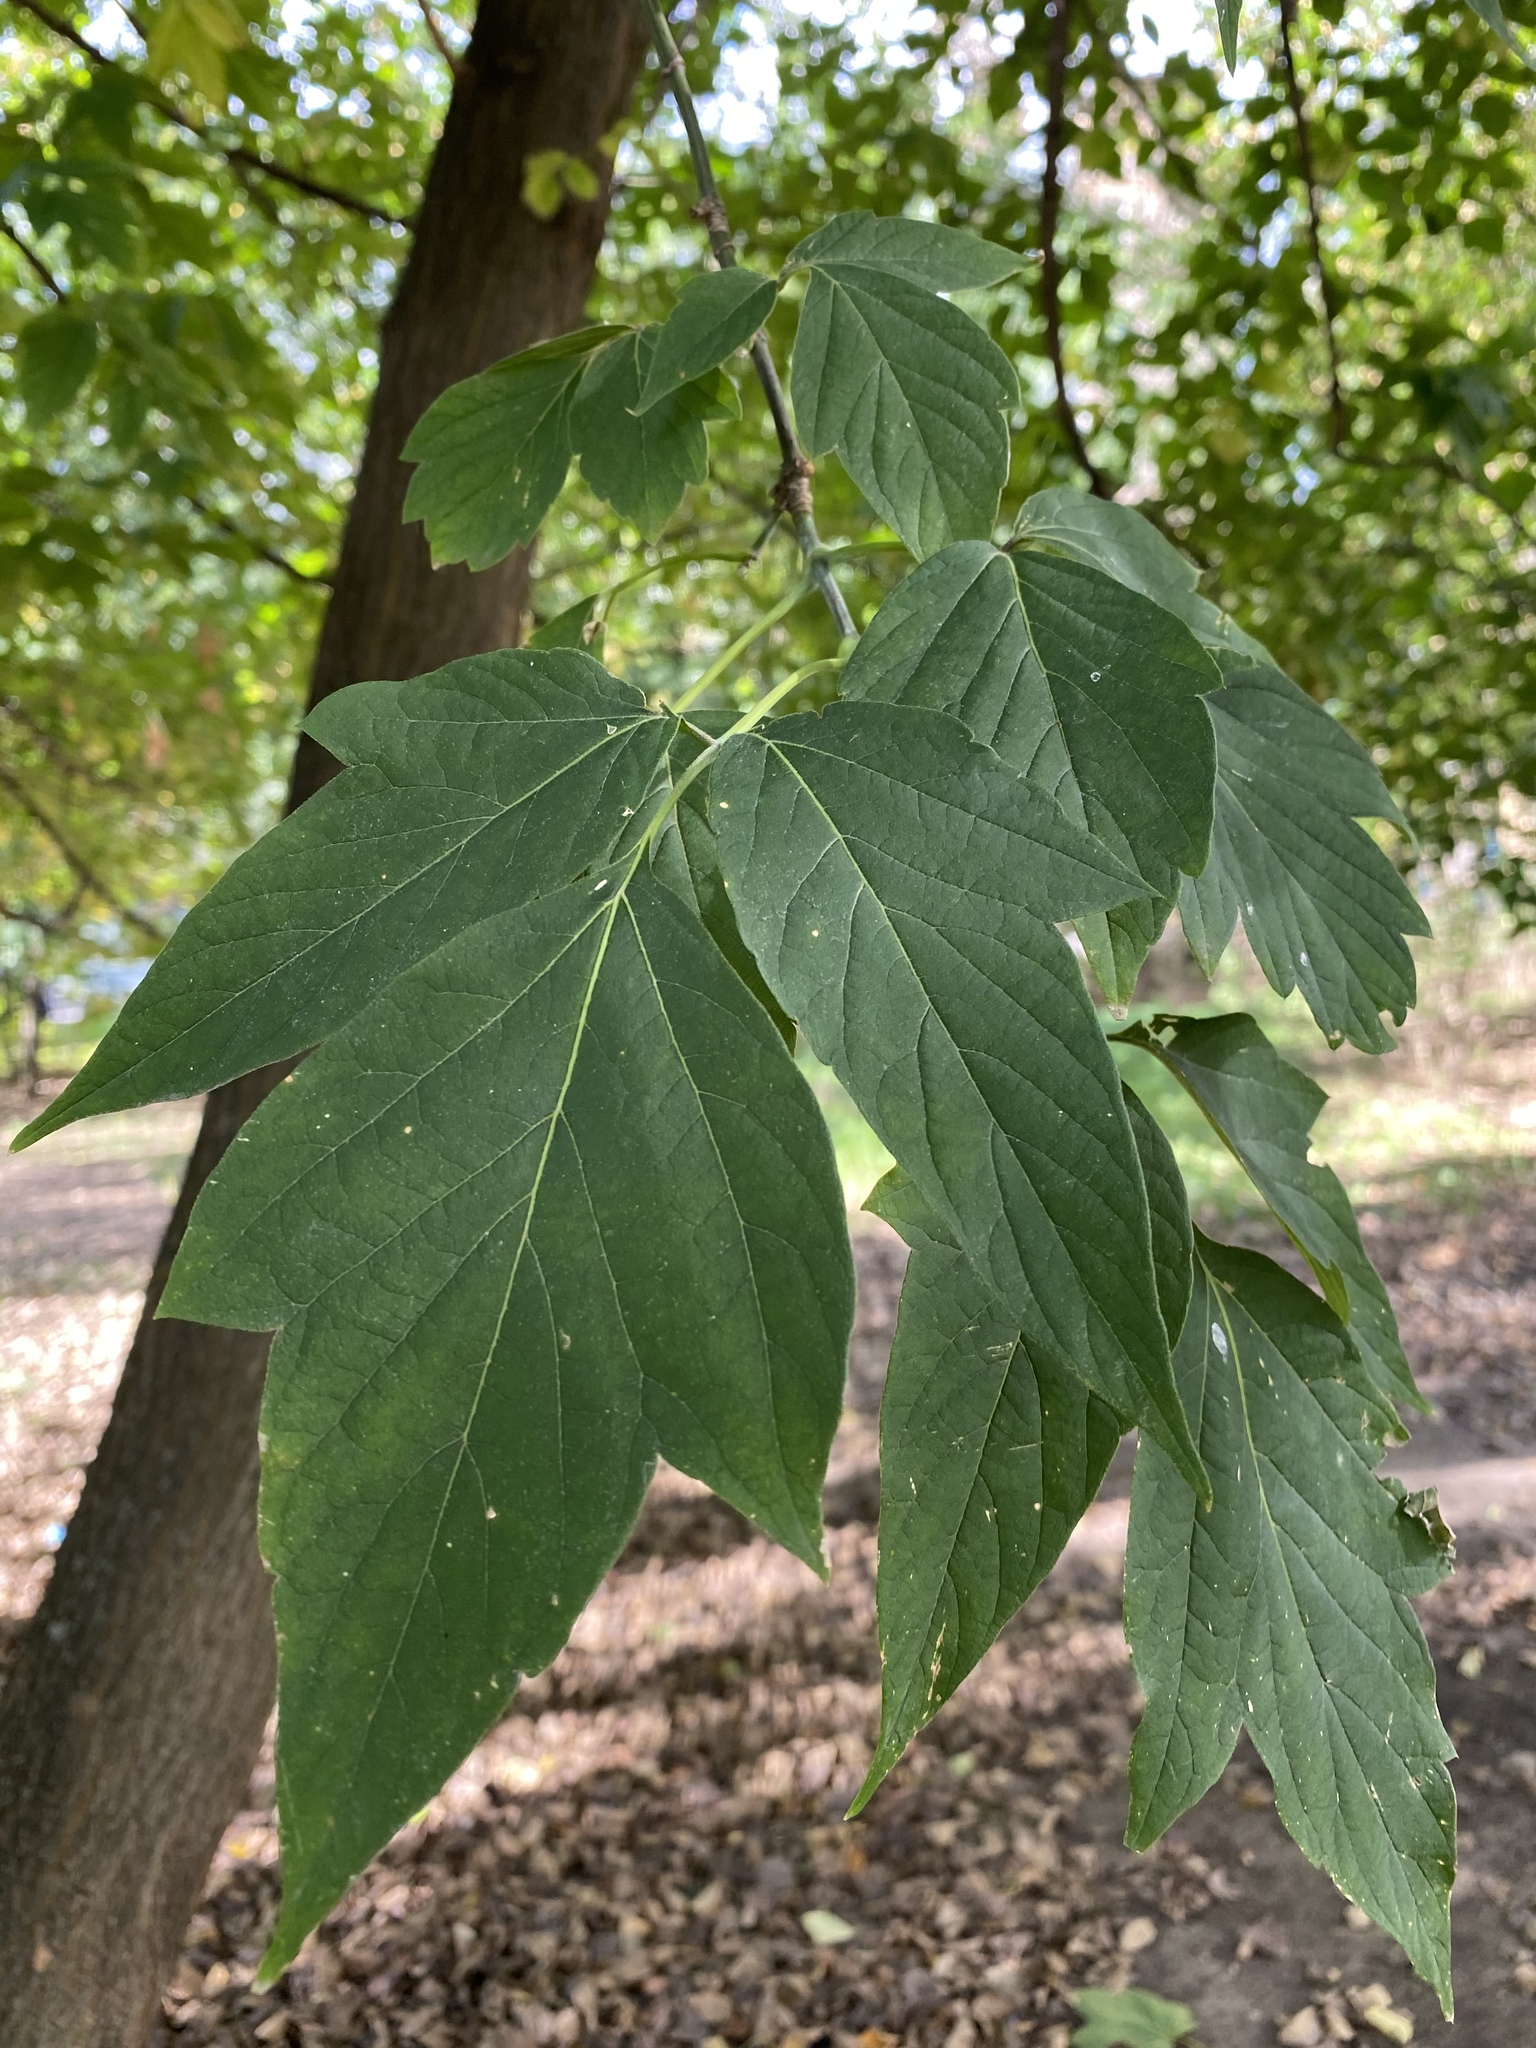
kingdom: Plantae
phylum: Tracheophyta
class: Magnoliopsida
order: Sapindales
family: Sapindaceae
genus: Acer
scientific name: Acer negundo
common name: Ashleaf maple
